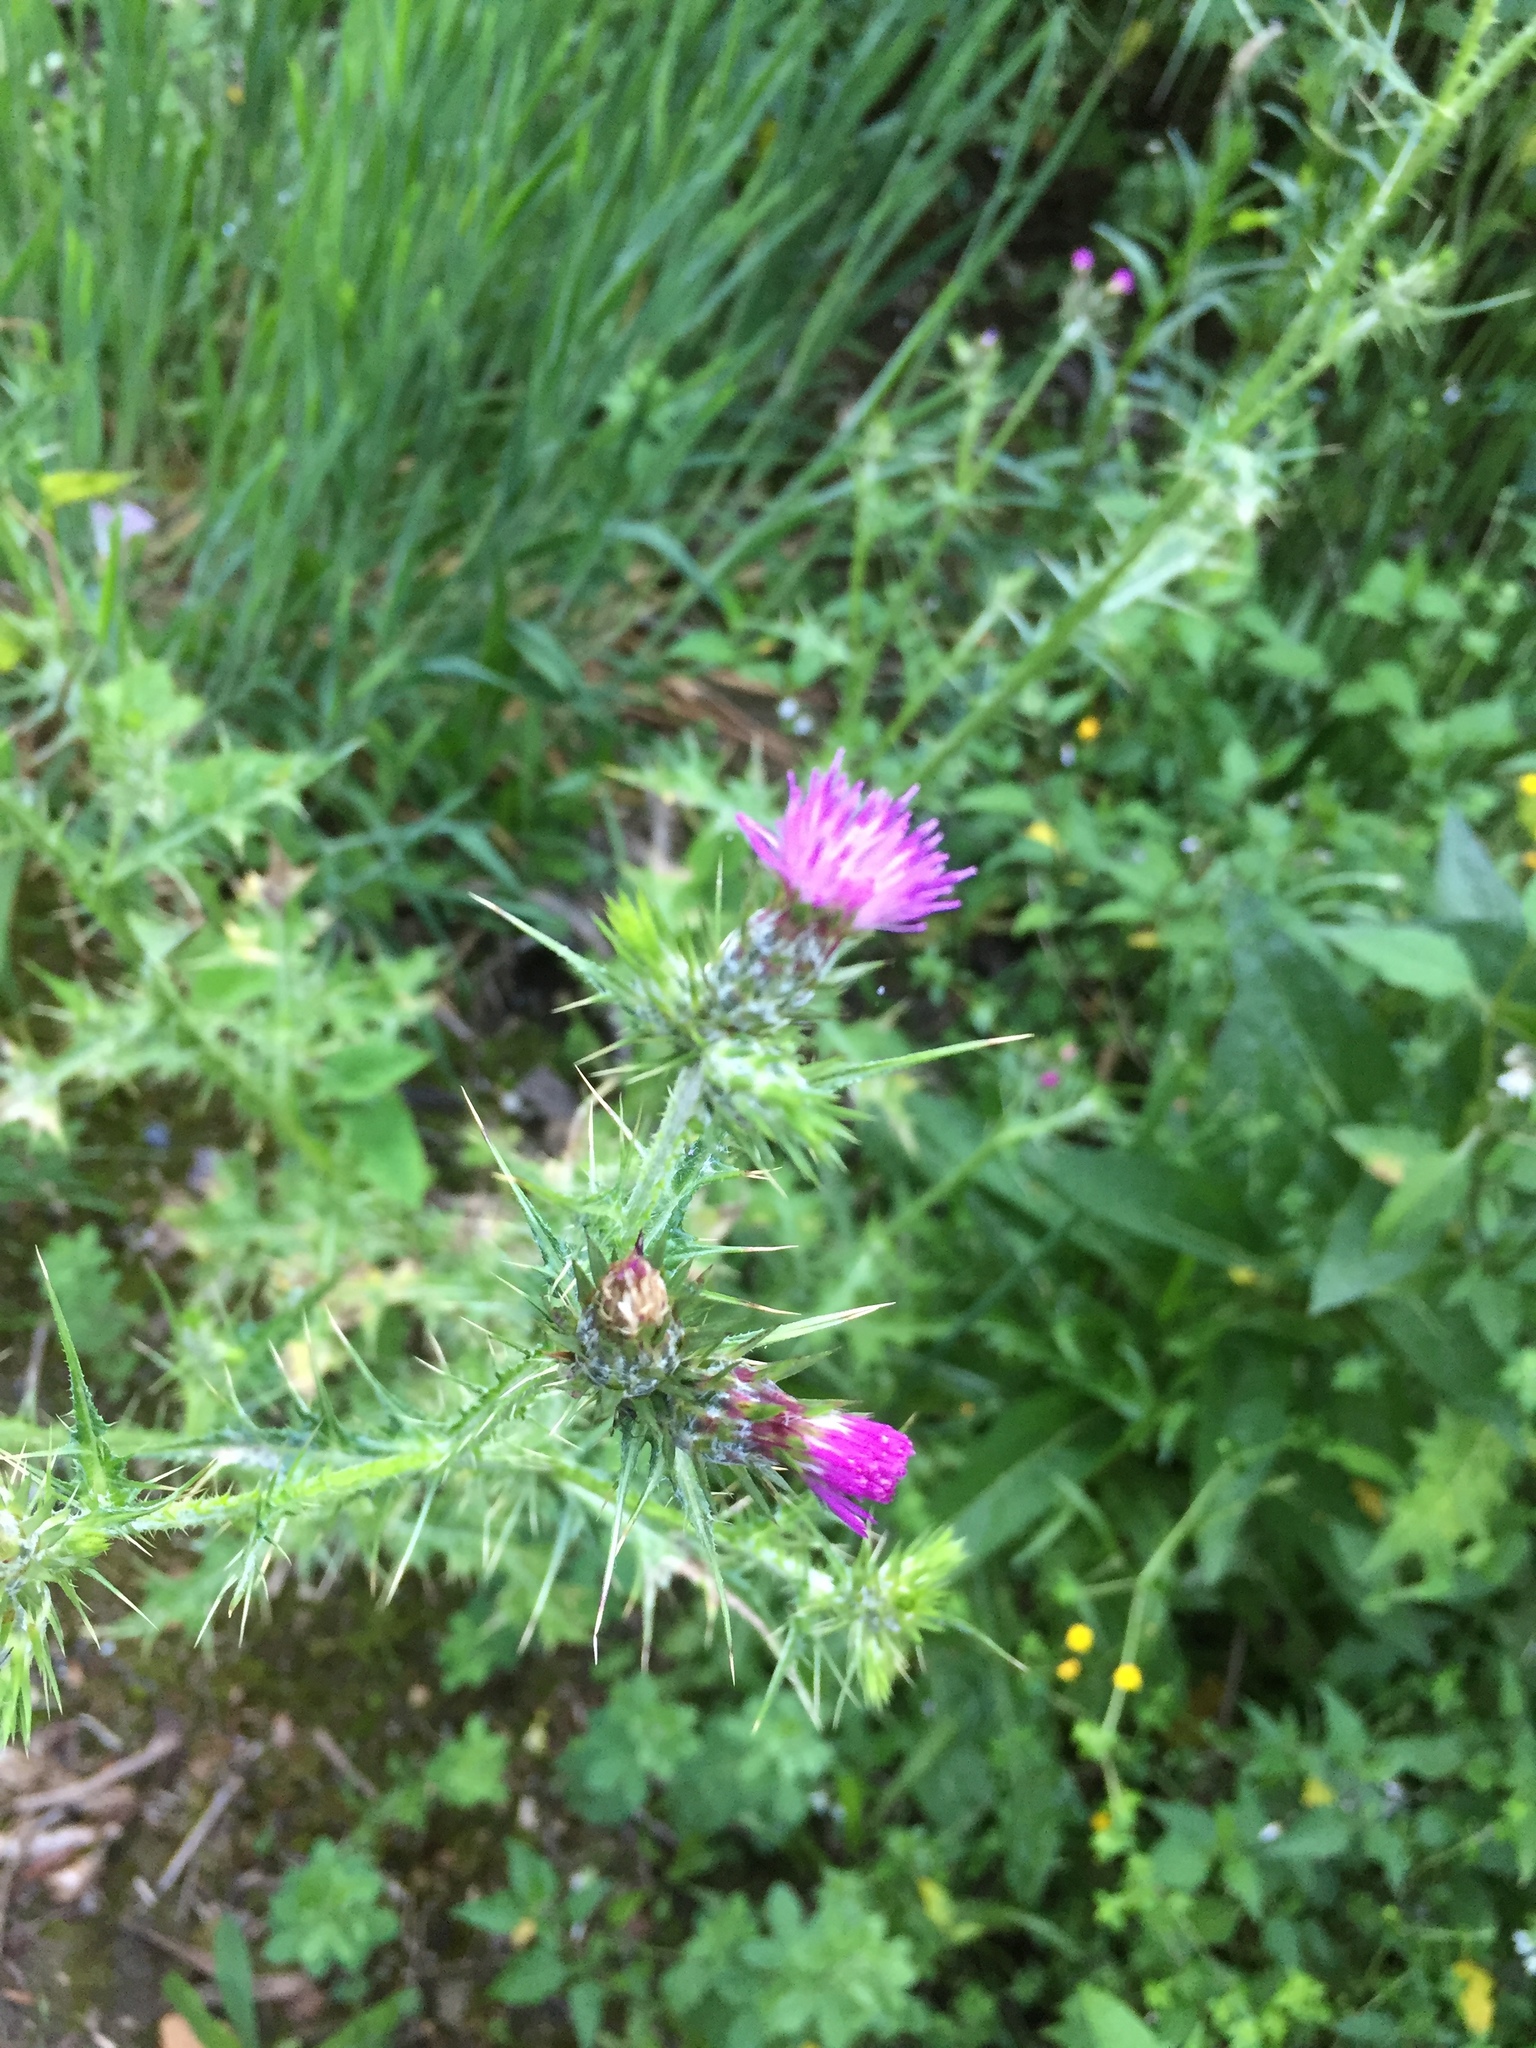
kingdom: Plantae
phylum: Tracheophyta
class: Magnoliopsida
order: Asterales
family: Asteraceae
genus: Carduus
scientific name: Carduus pycnocephalus
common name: Plymouth thistle
